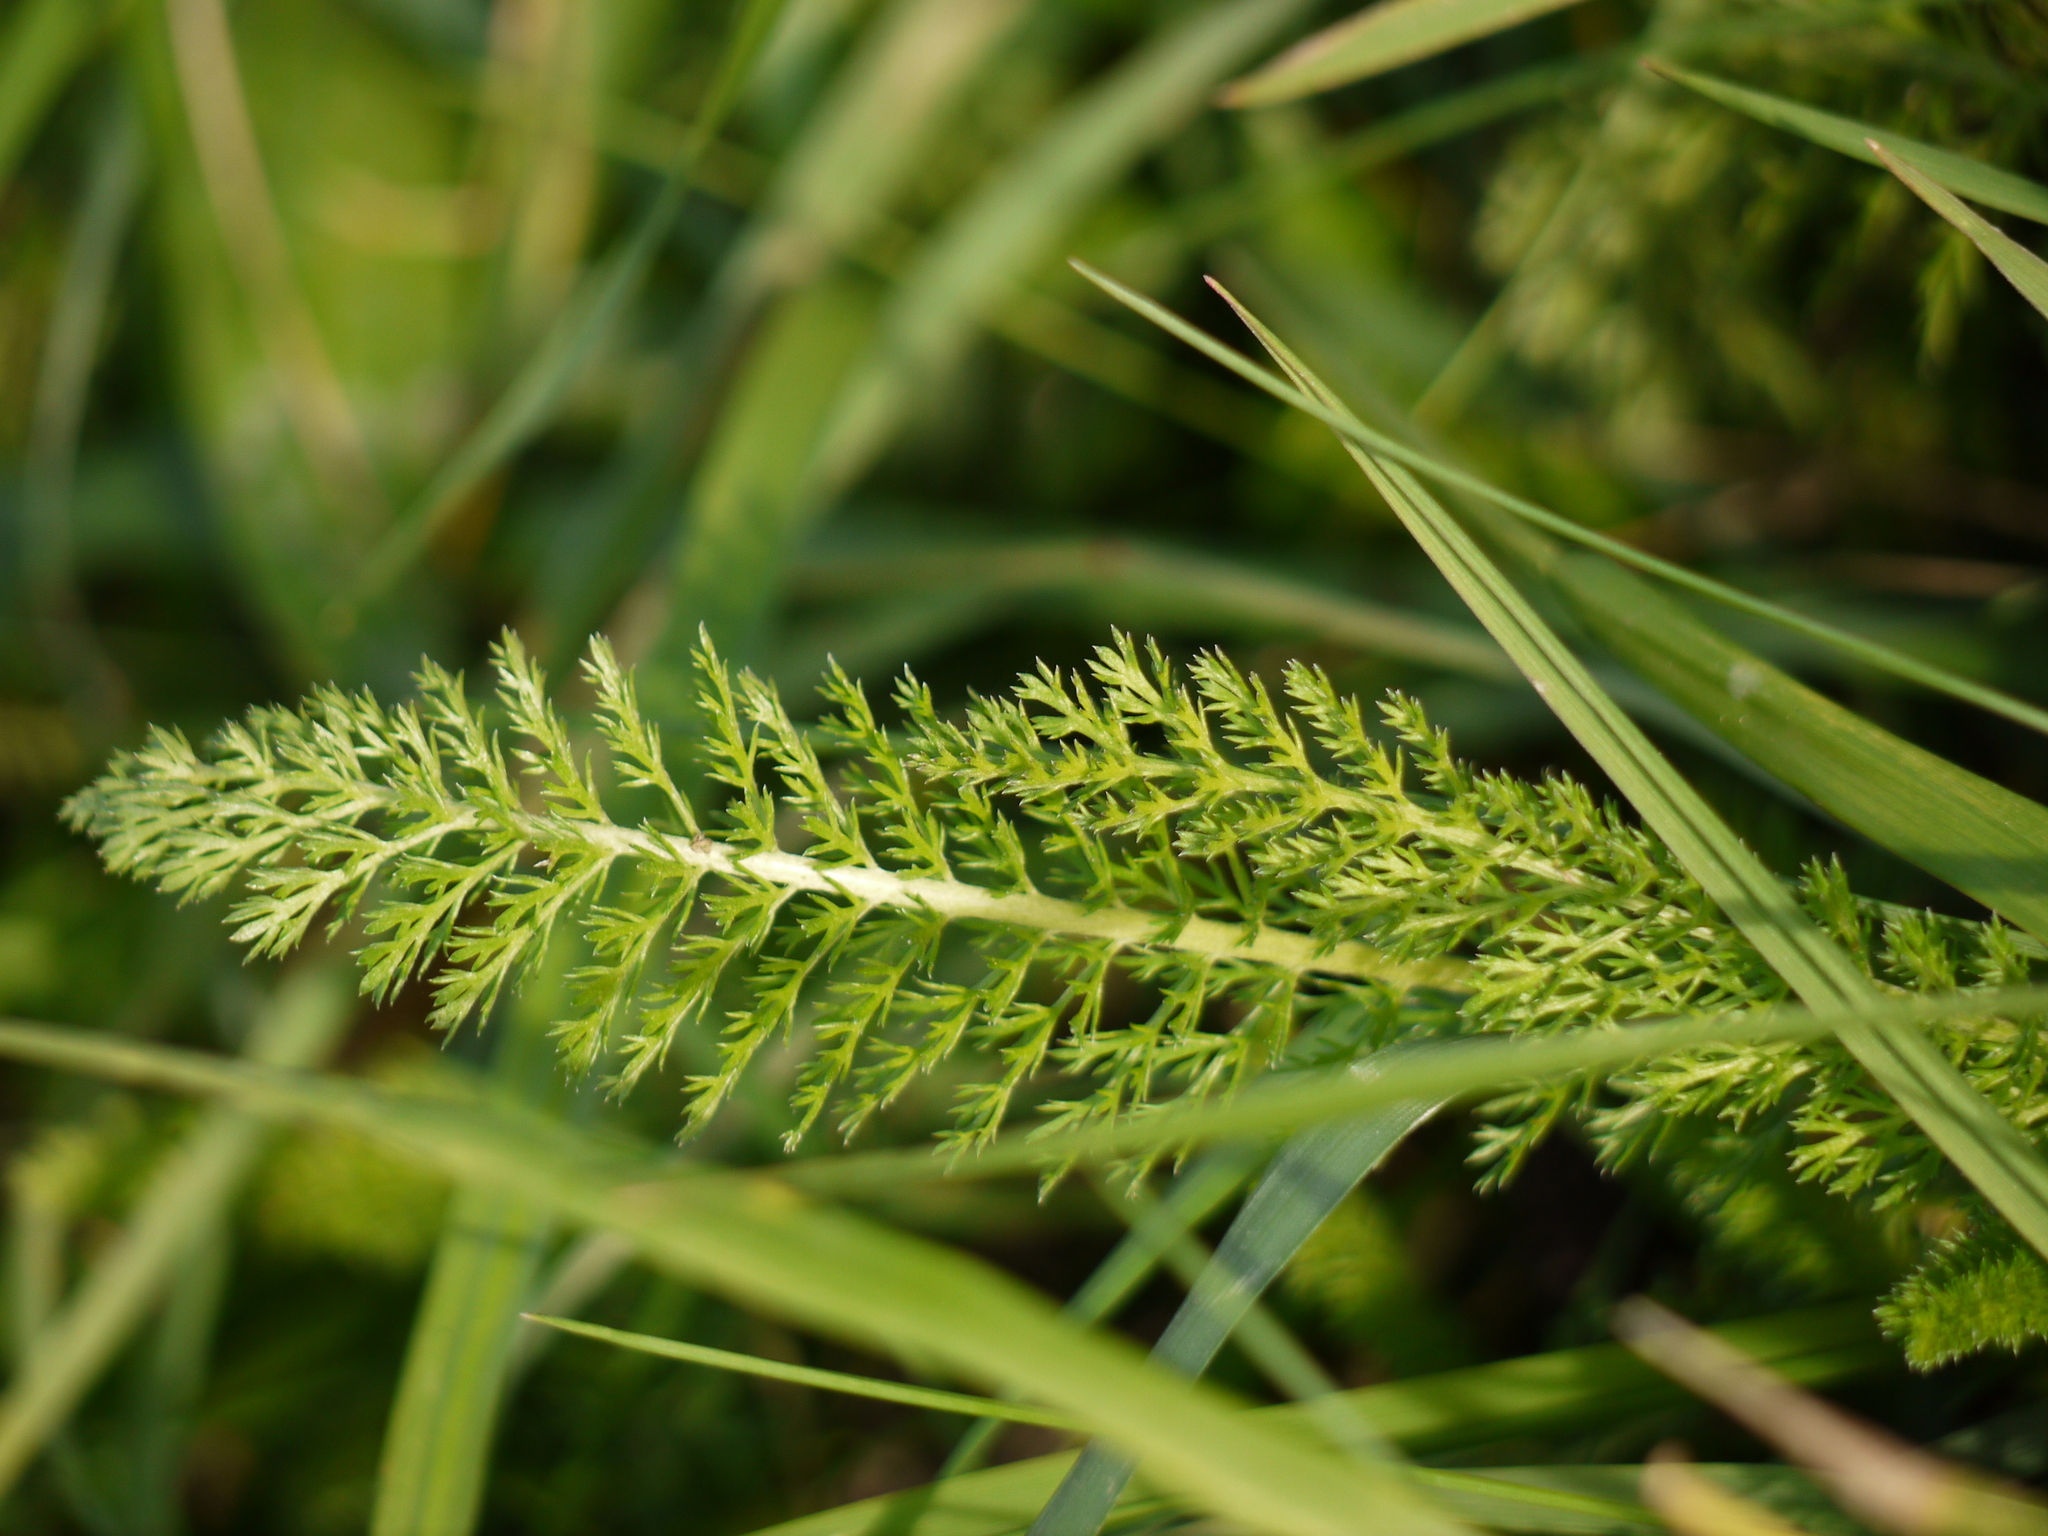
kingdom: Plantae
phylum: Tracheophyta
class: Magnoliopsida
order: Asterales
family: Asteraceae
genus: Achillea
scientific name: Achillea millefolium
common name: Yarrow
